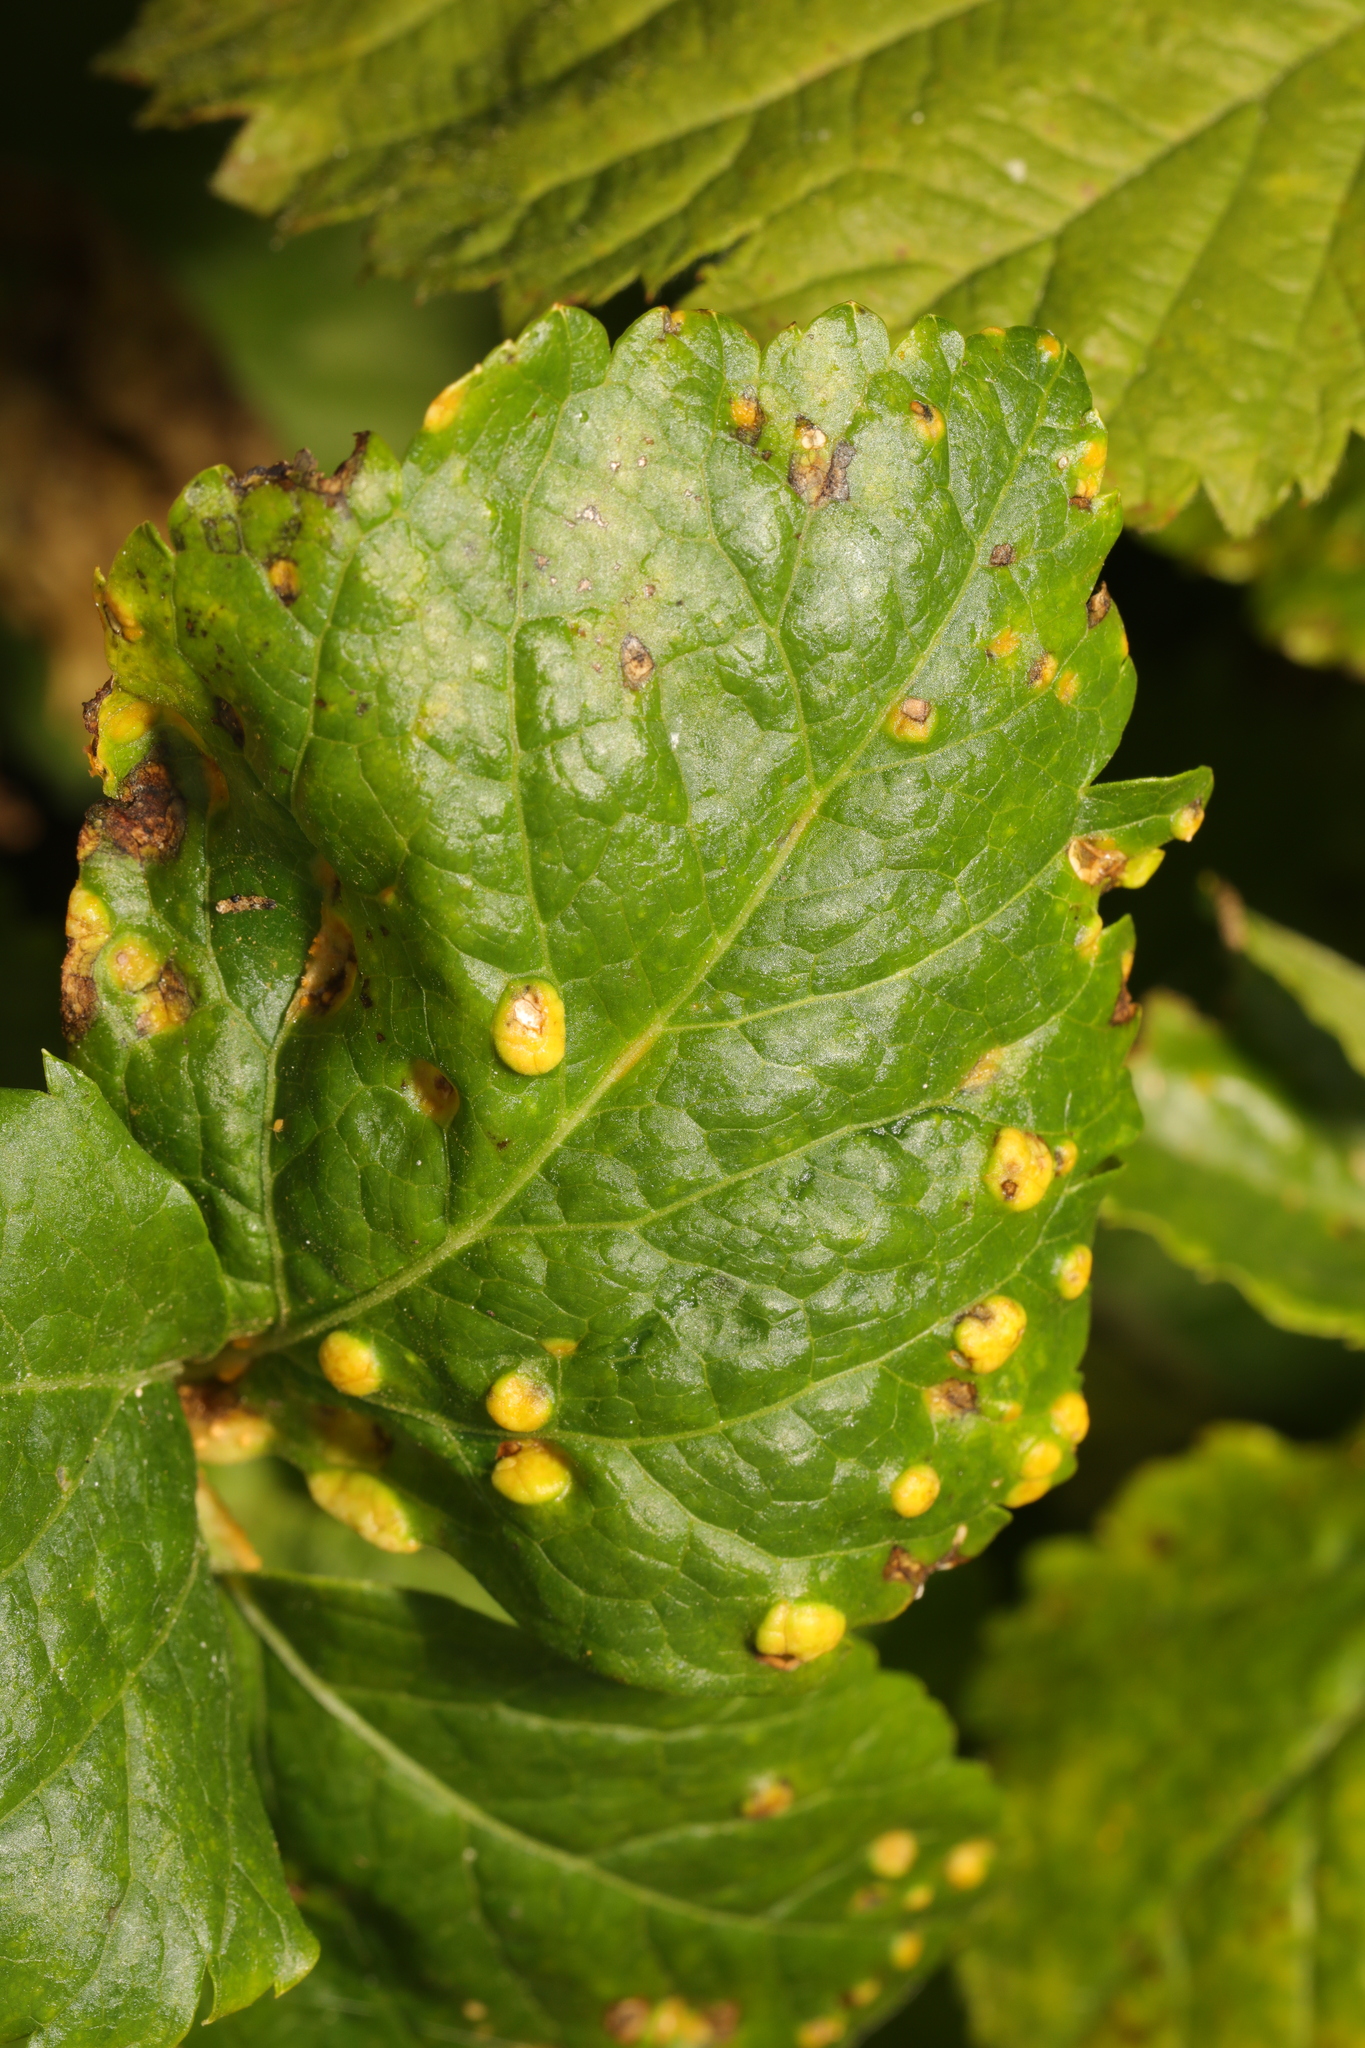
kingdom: Fungi
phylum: Basidiomycota
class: Pucciniomycetes
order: Pucciniales
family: Pucciniaceae
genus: Puccinia
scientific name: Puccinia smyrnii
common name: Alexanders rust
